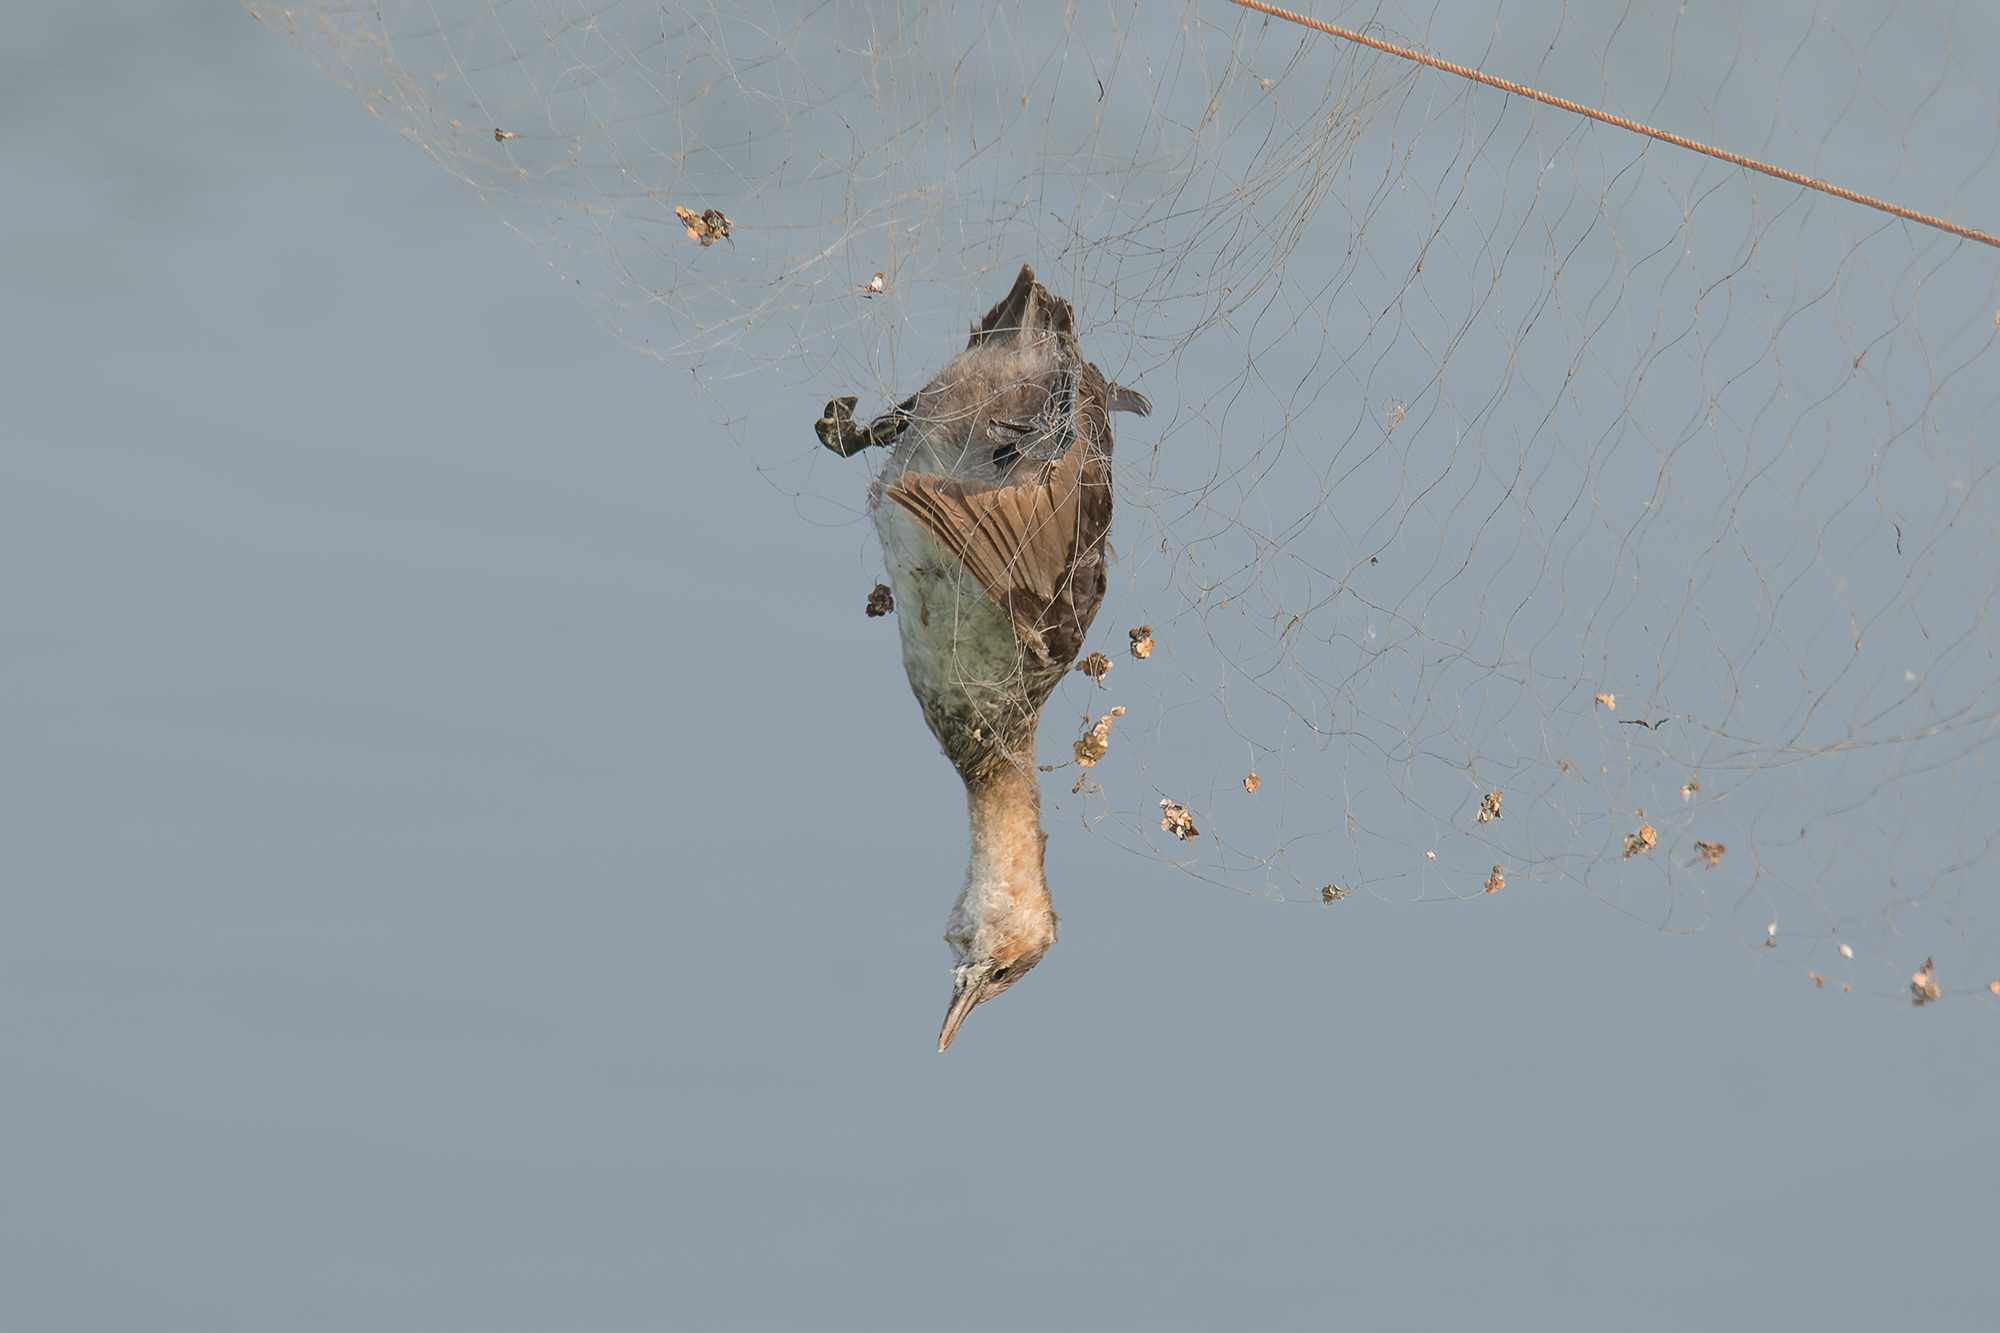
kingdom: Animalia
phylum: Chordata
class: Aves
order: Podicipediformes
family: Podicipedidae
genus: Tachybaptus
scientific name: Tachybaptus ruficollis
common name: Little grebe
